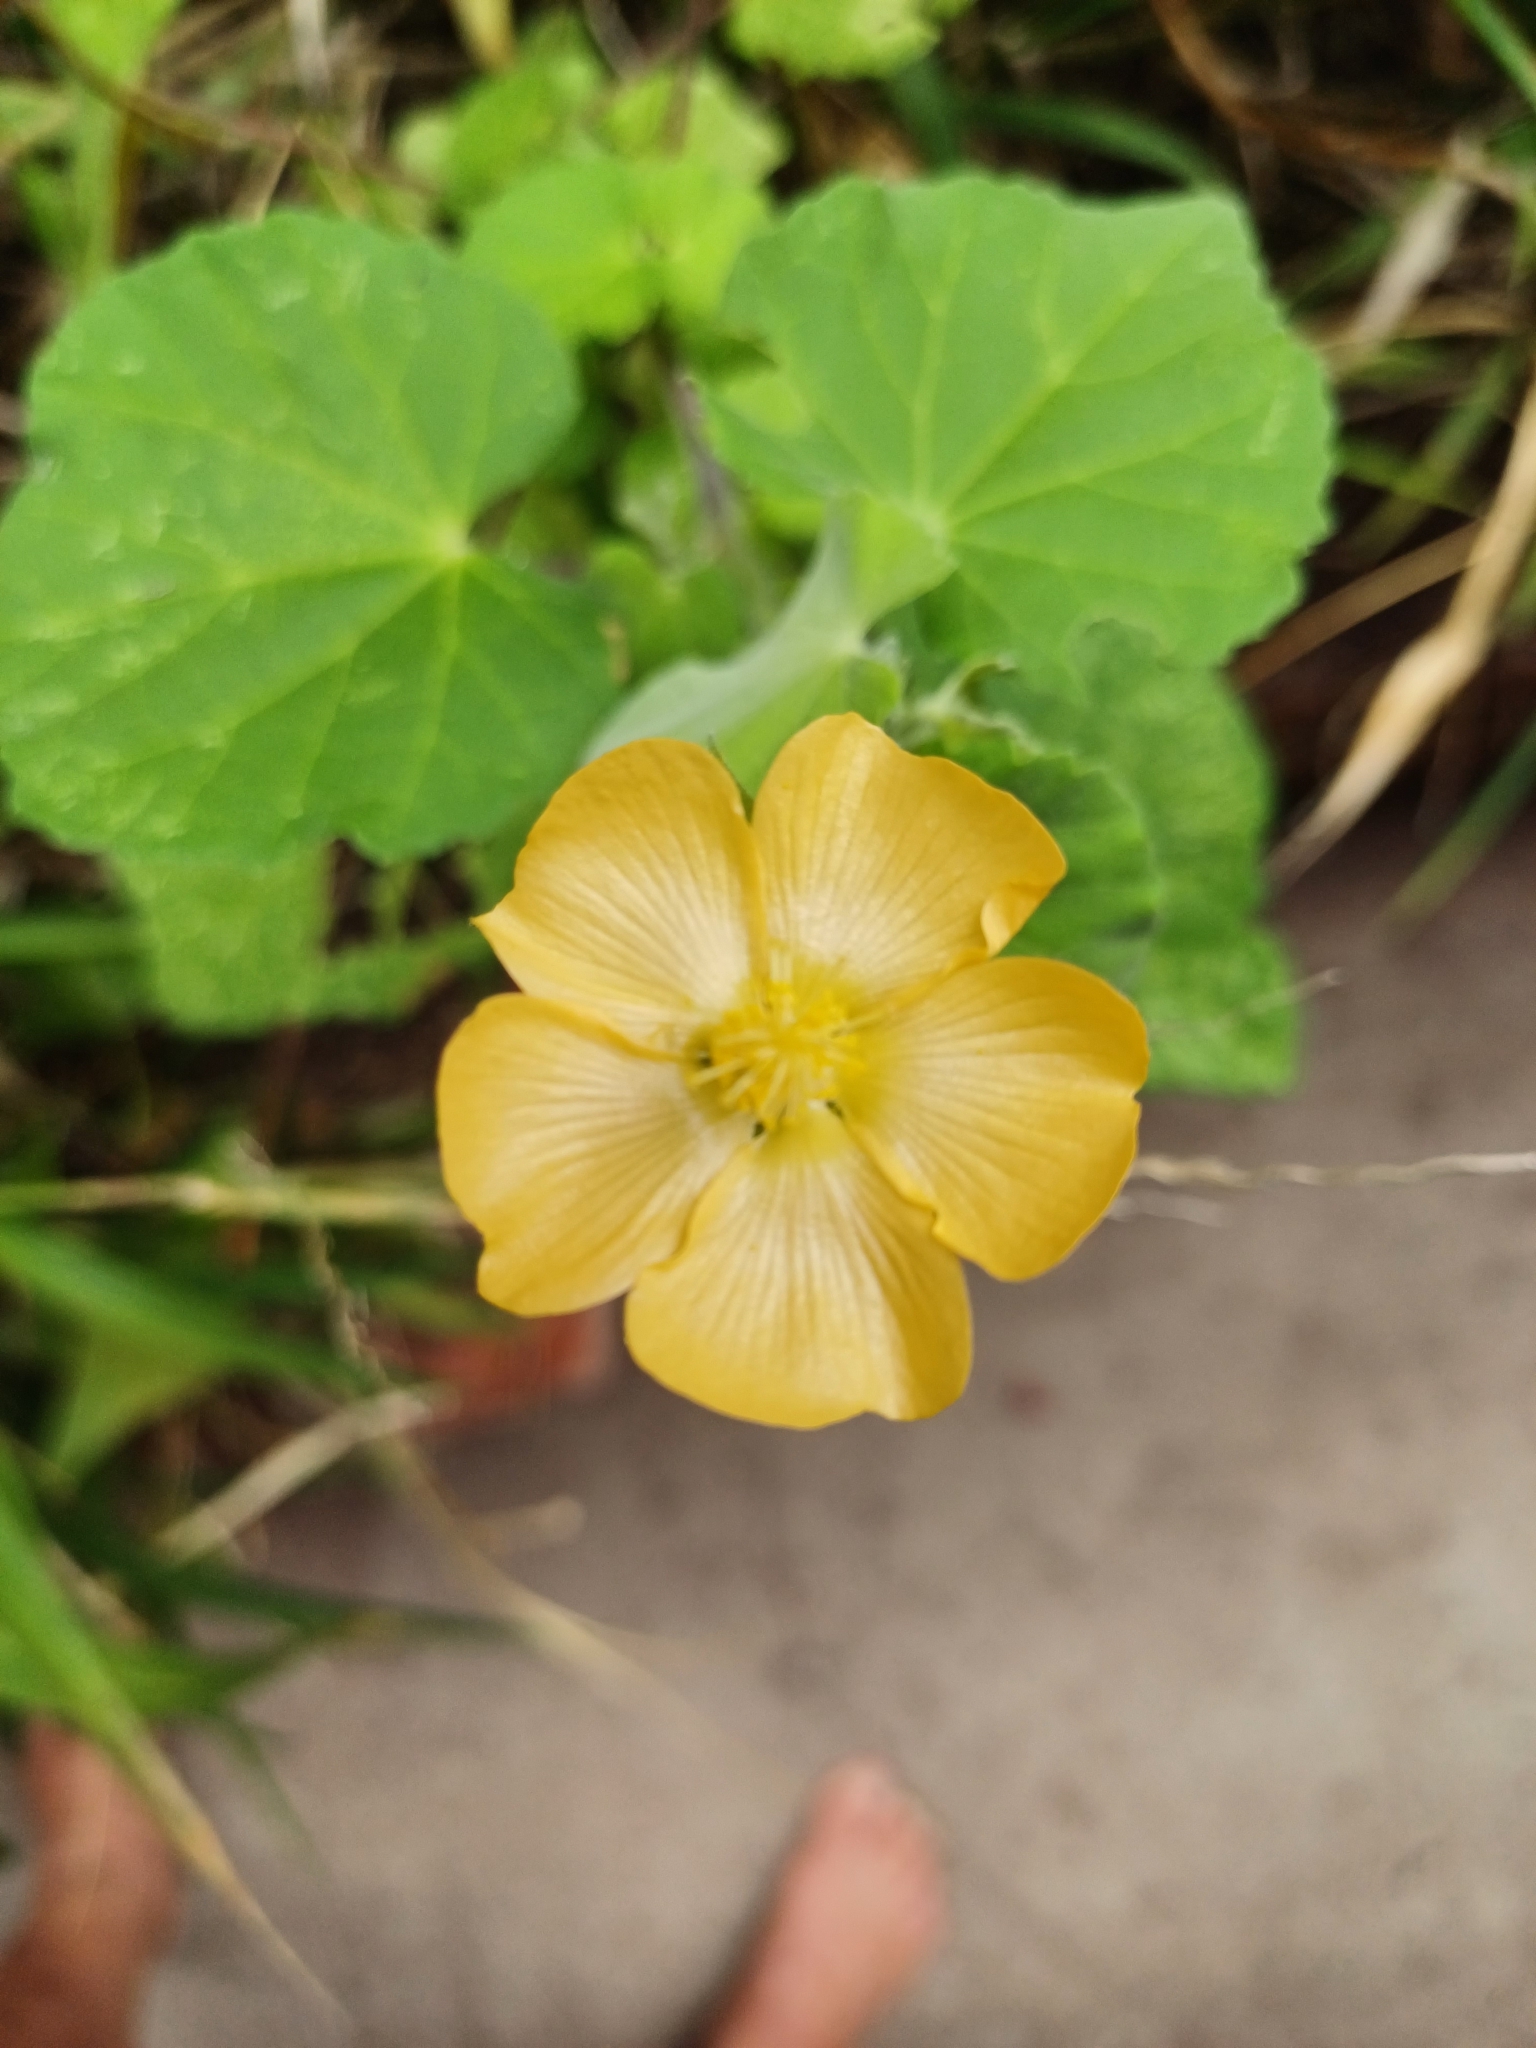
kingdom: Plantae
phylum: Tracheophyta
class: Magnoliopsida
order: Malvales
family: Malvaceae
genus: Abutilon
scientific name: Abutilon sonneratianum
